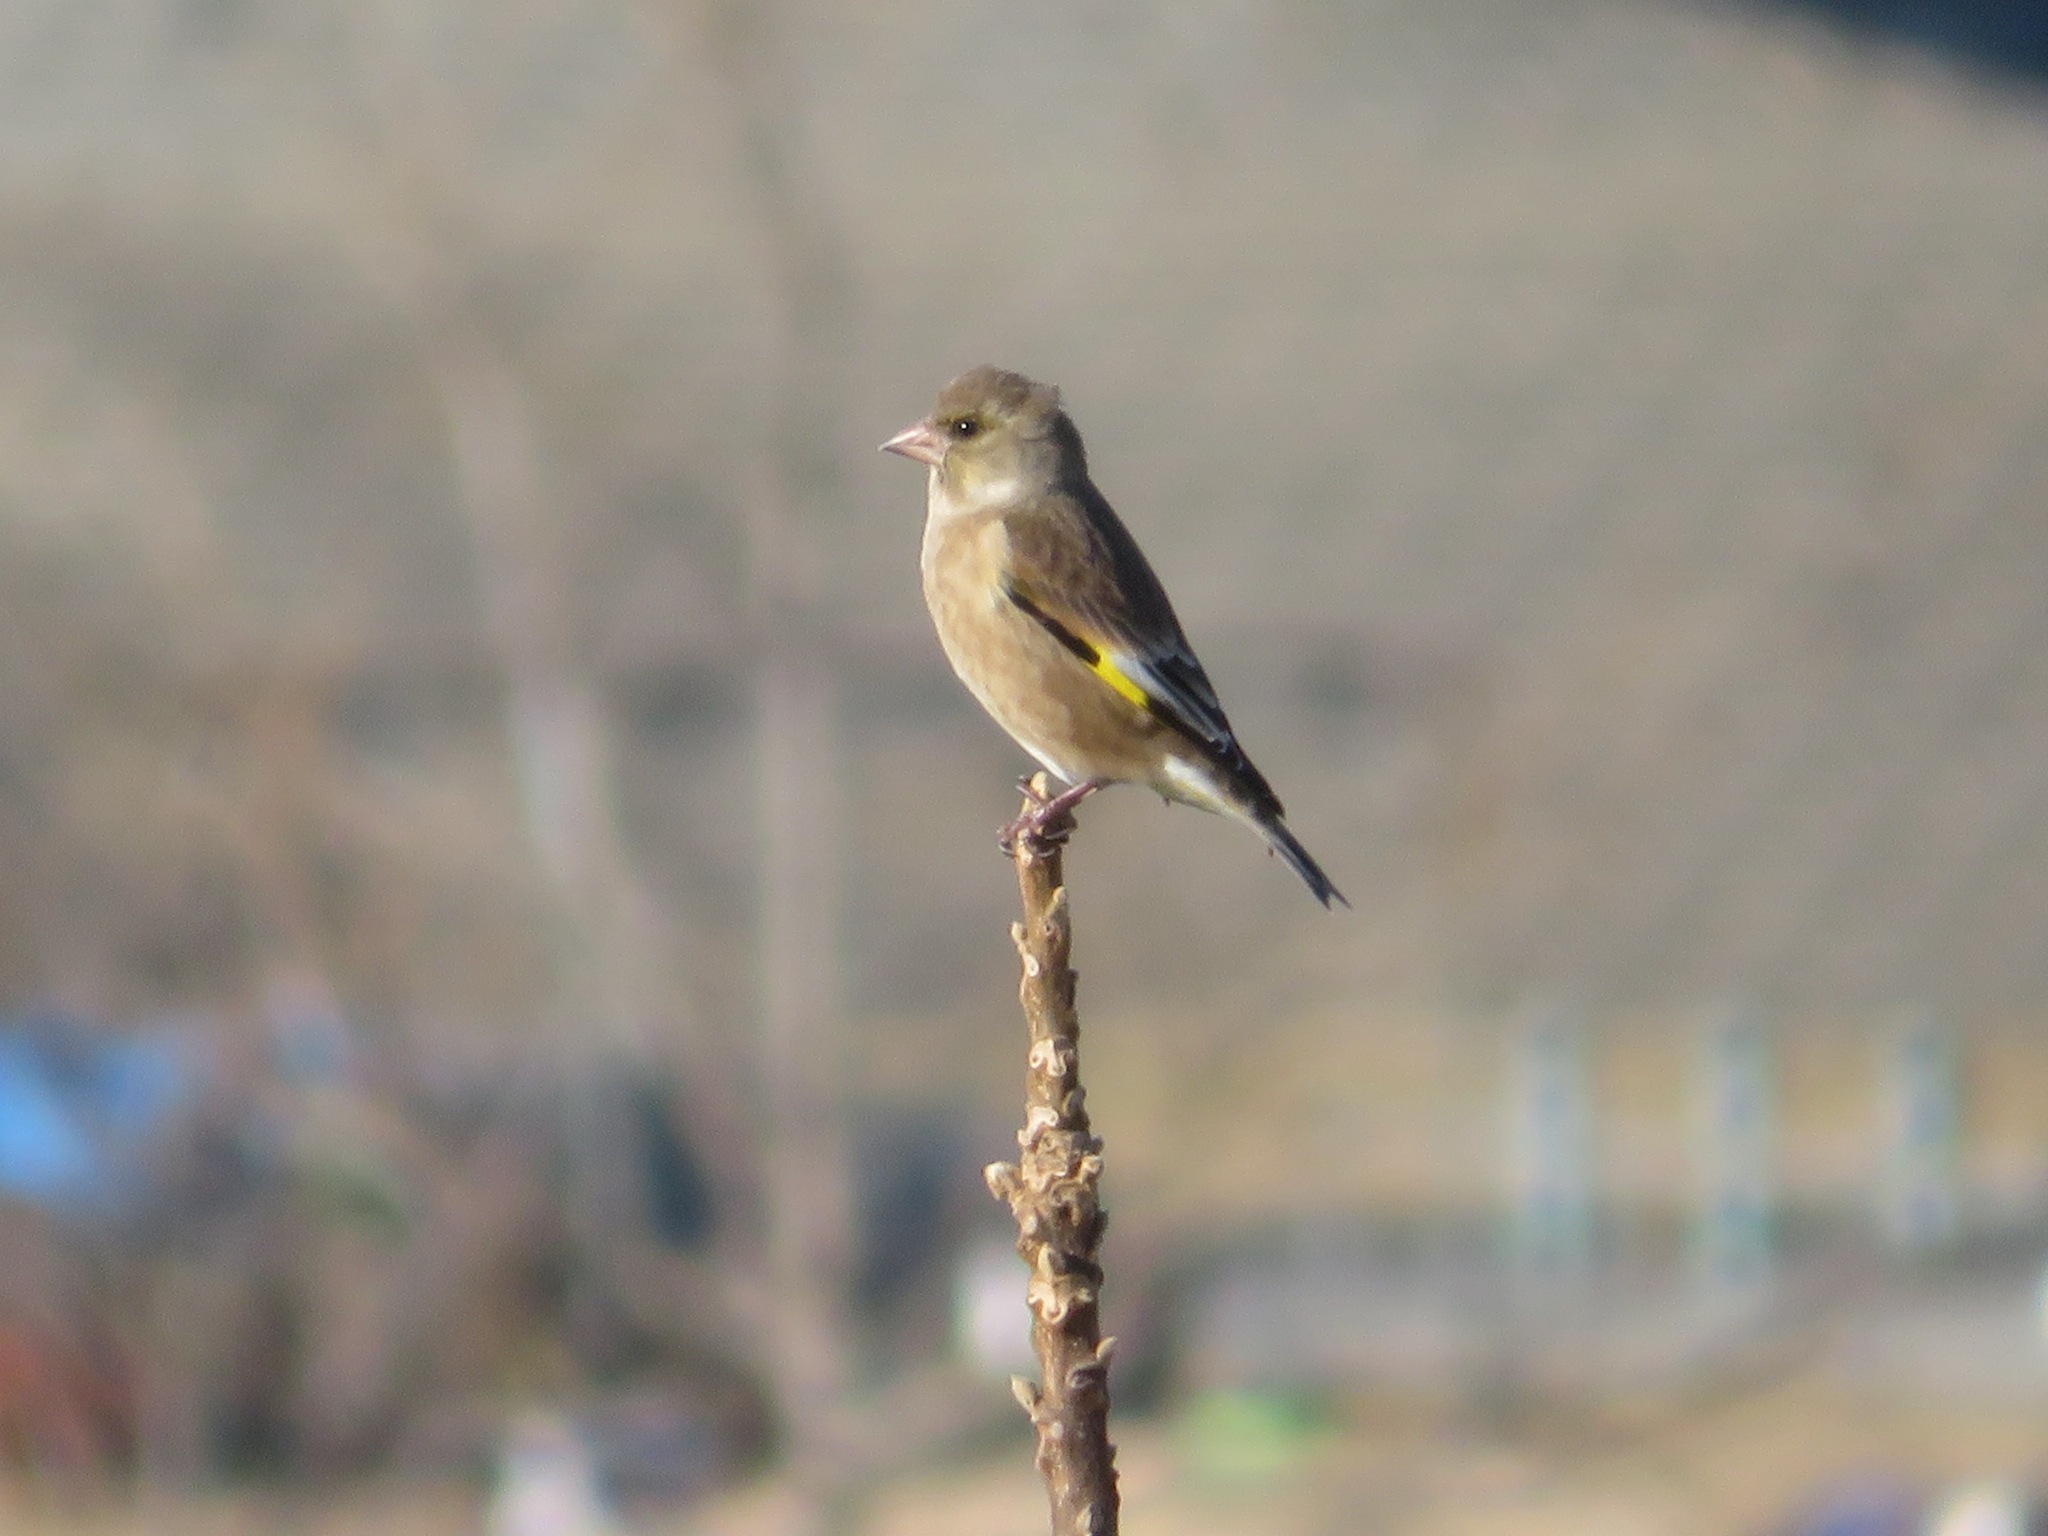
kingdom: Plantae
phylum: Tracheophyta
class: Liliopsida
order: Poales
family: Poaceae
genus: Chloris
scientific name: Chloris sinica
